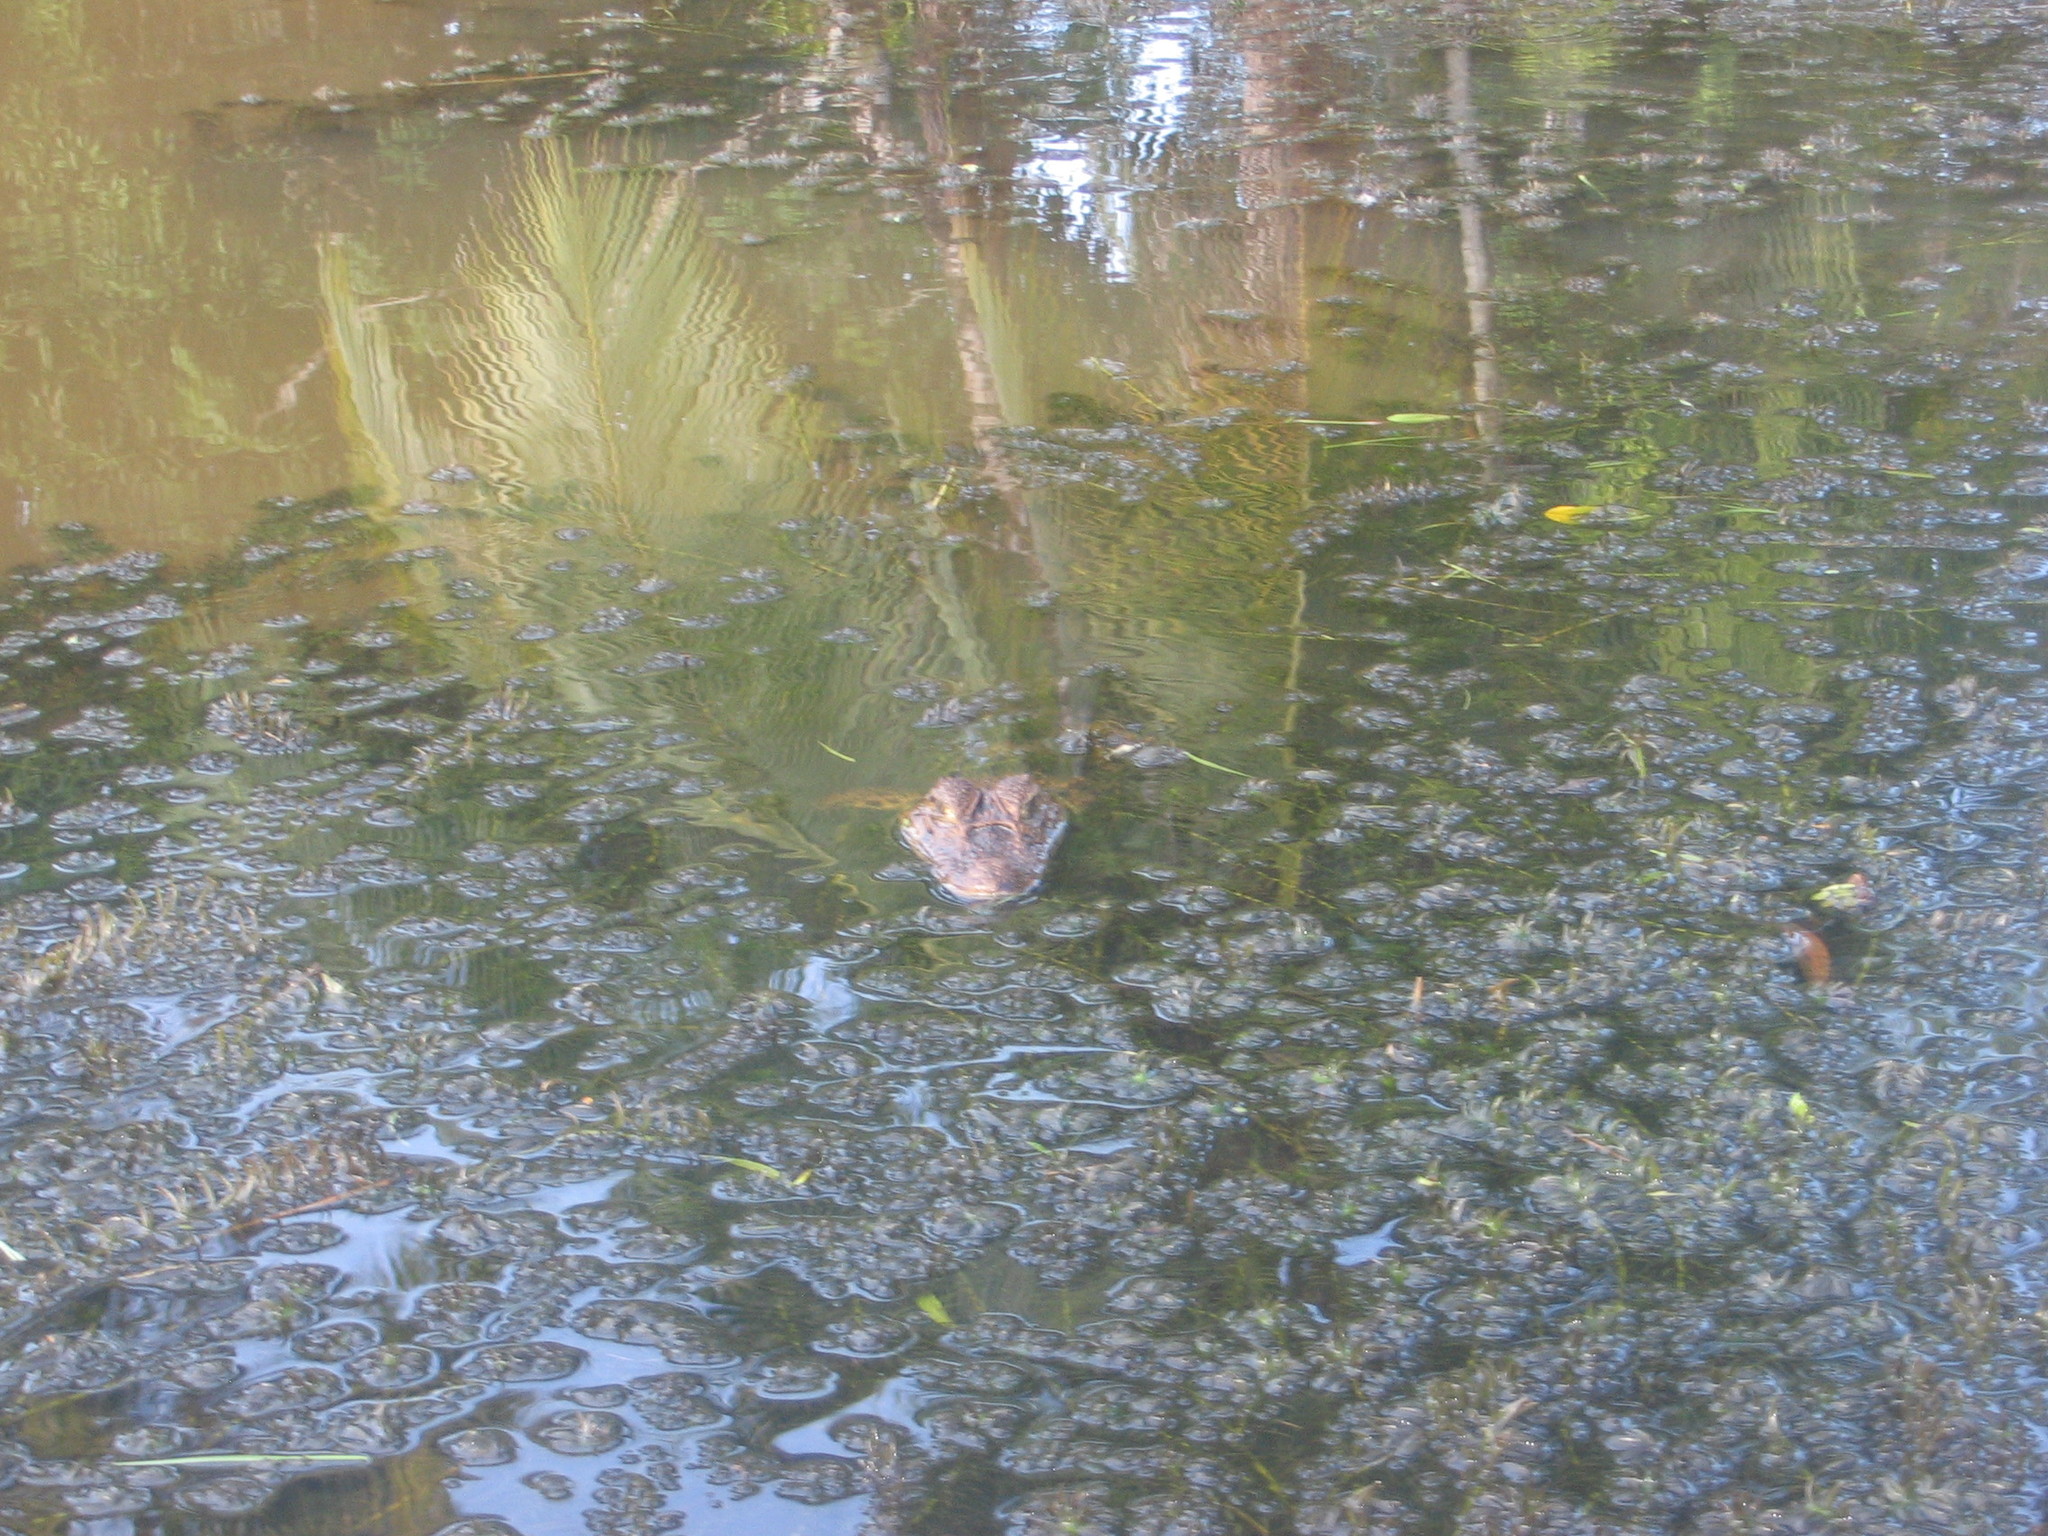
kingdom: Animalia
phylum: Chordata
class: Crocodylia
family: Alligatoridae
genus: Caiman
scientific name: Caiman crocodilus
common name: Common caiman
